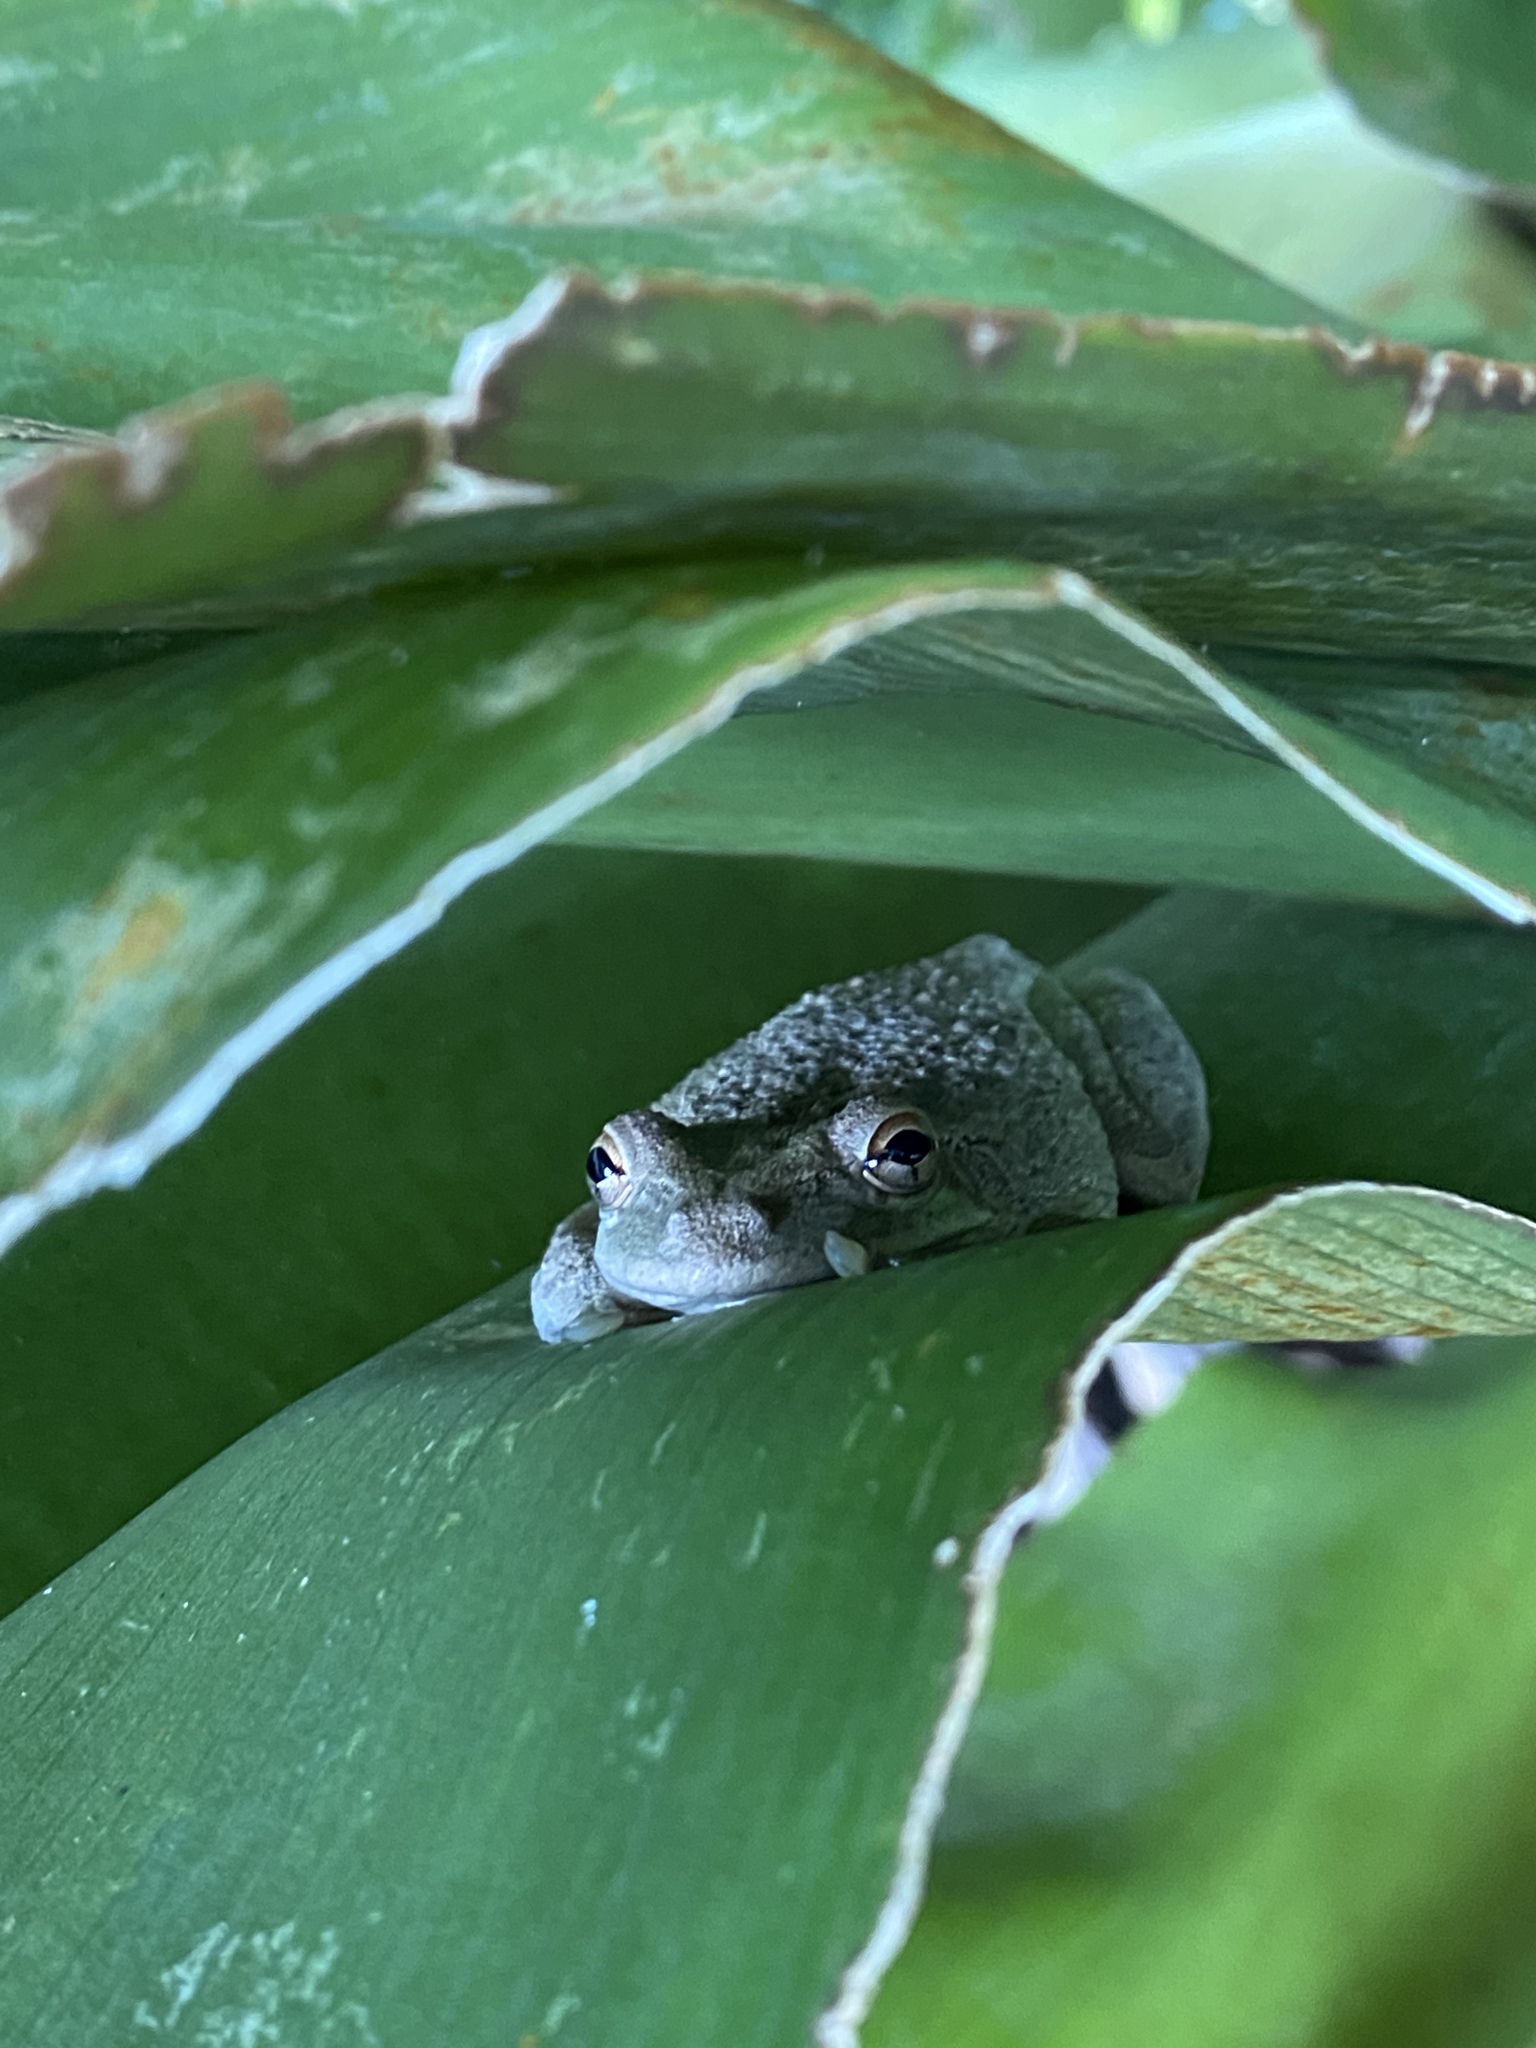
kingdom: Animalia
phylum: Chordata
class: Amphibia
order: Anura
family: Hylidae
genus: Osteopilus
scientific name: Osteopilus septentrionalis
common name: Cuban treefrog
